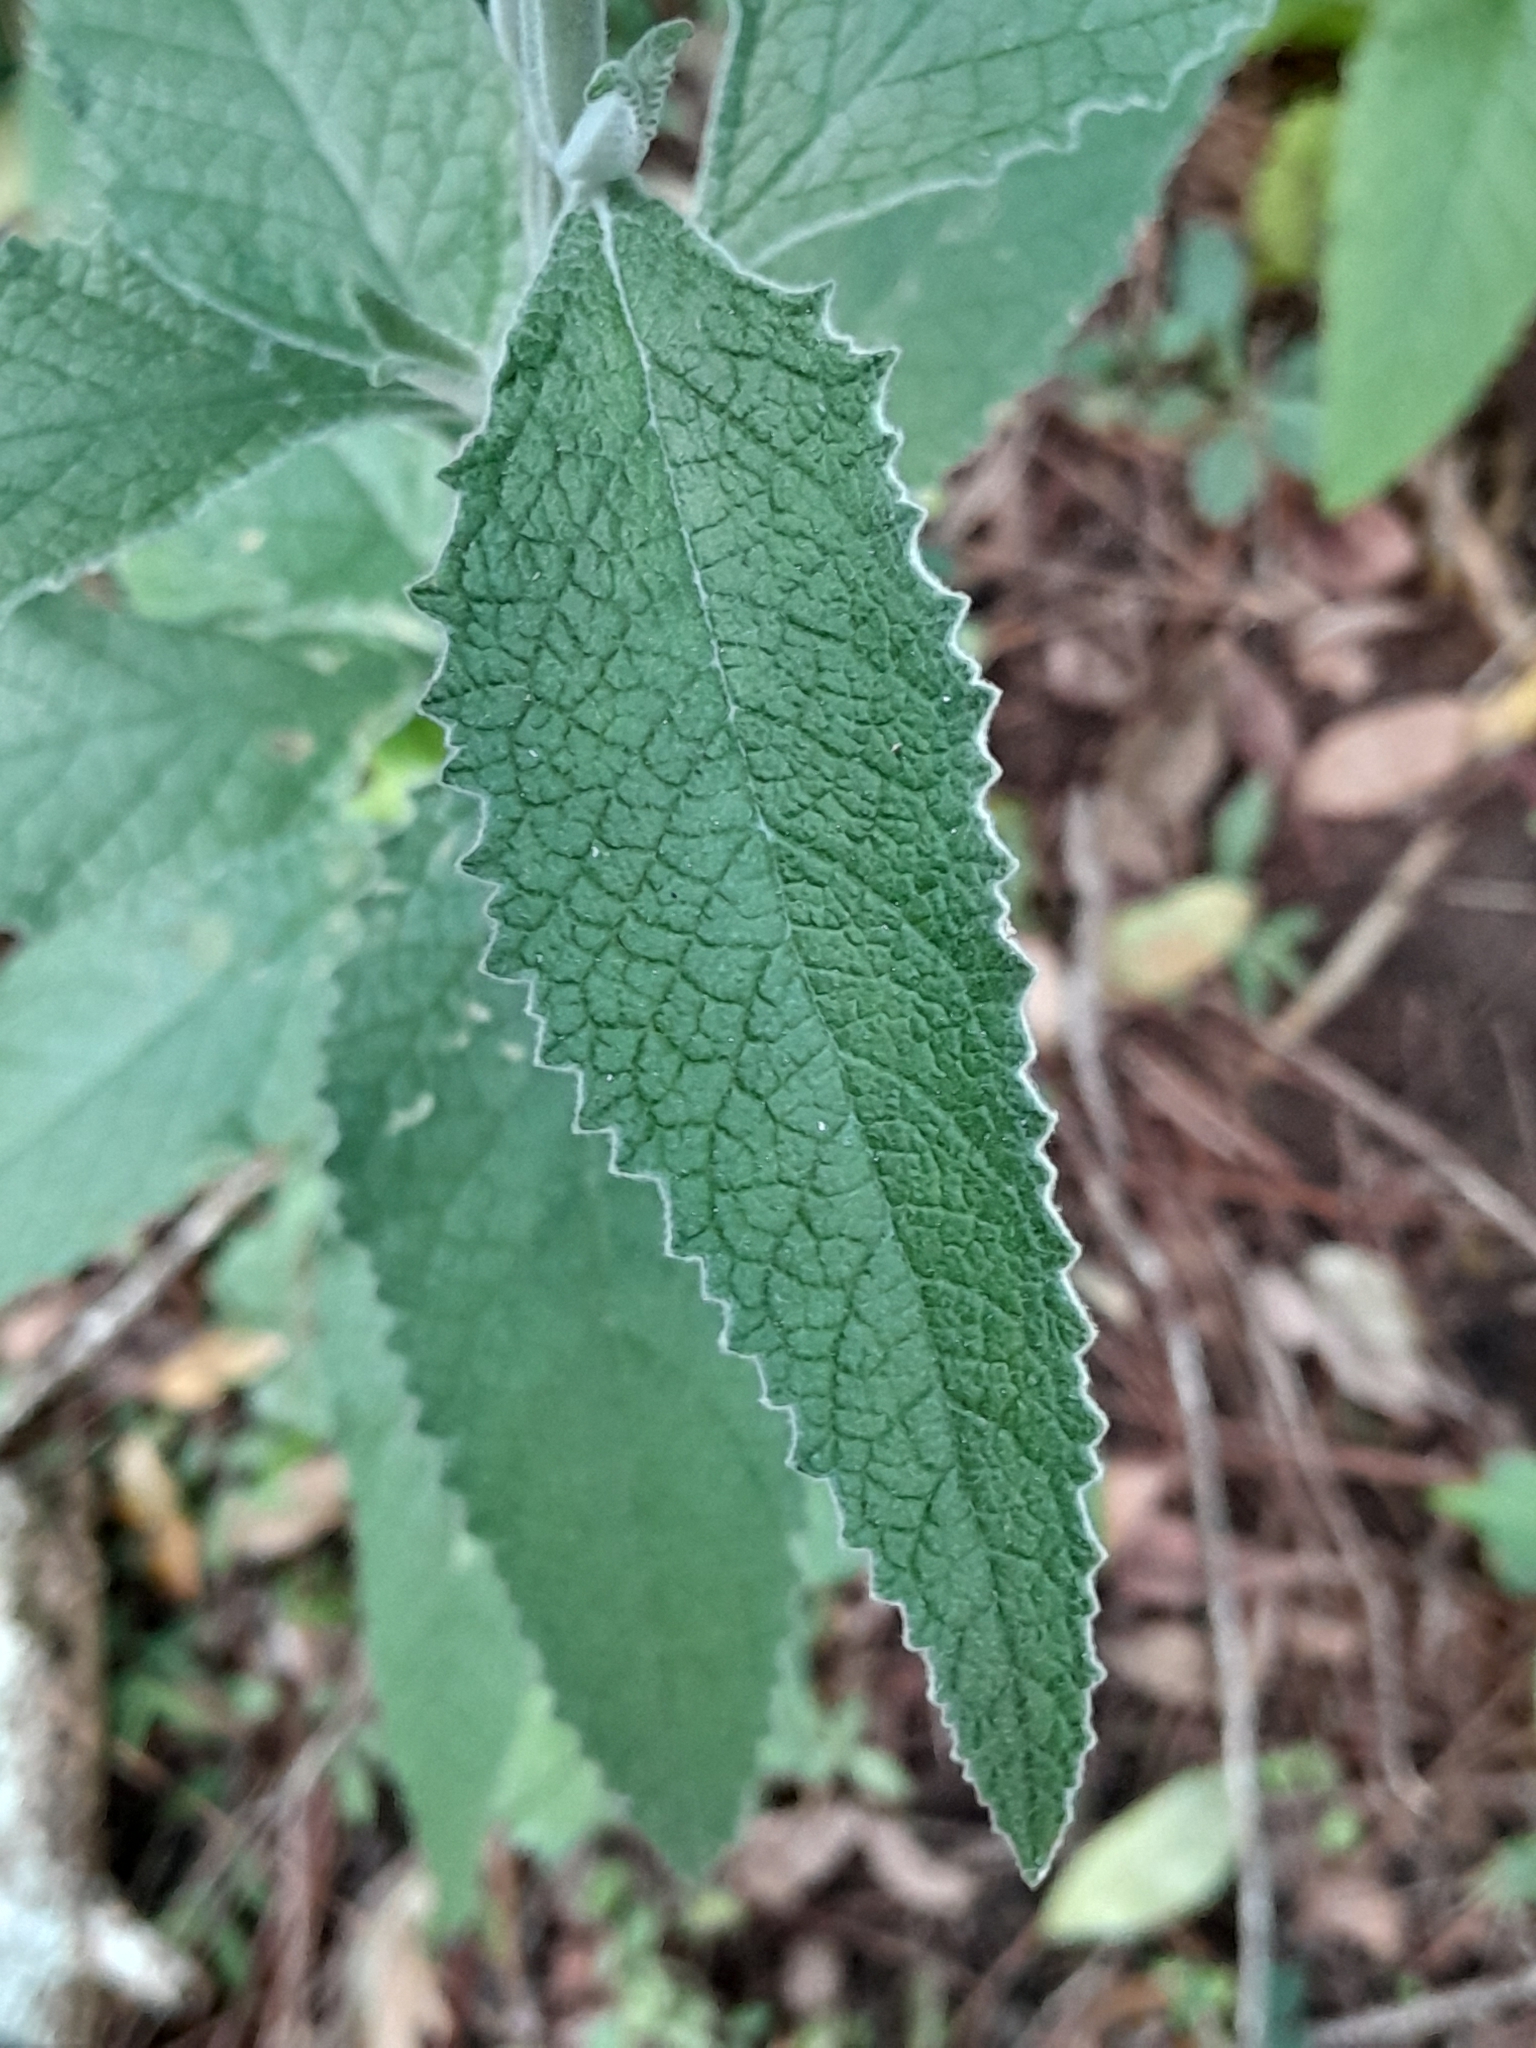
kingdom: Plantae
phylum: Tracheophyta
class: Magnoliopsida
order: Lamiales
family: Scrophulariaceae
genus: Buddleja
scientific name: Buddleja stachyoides
